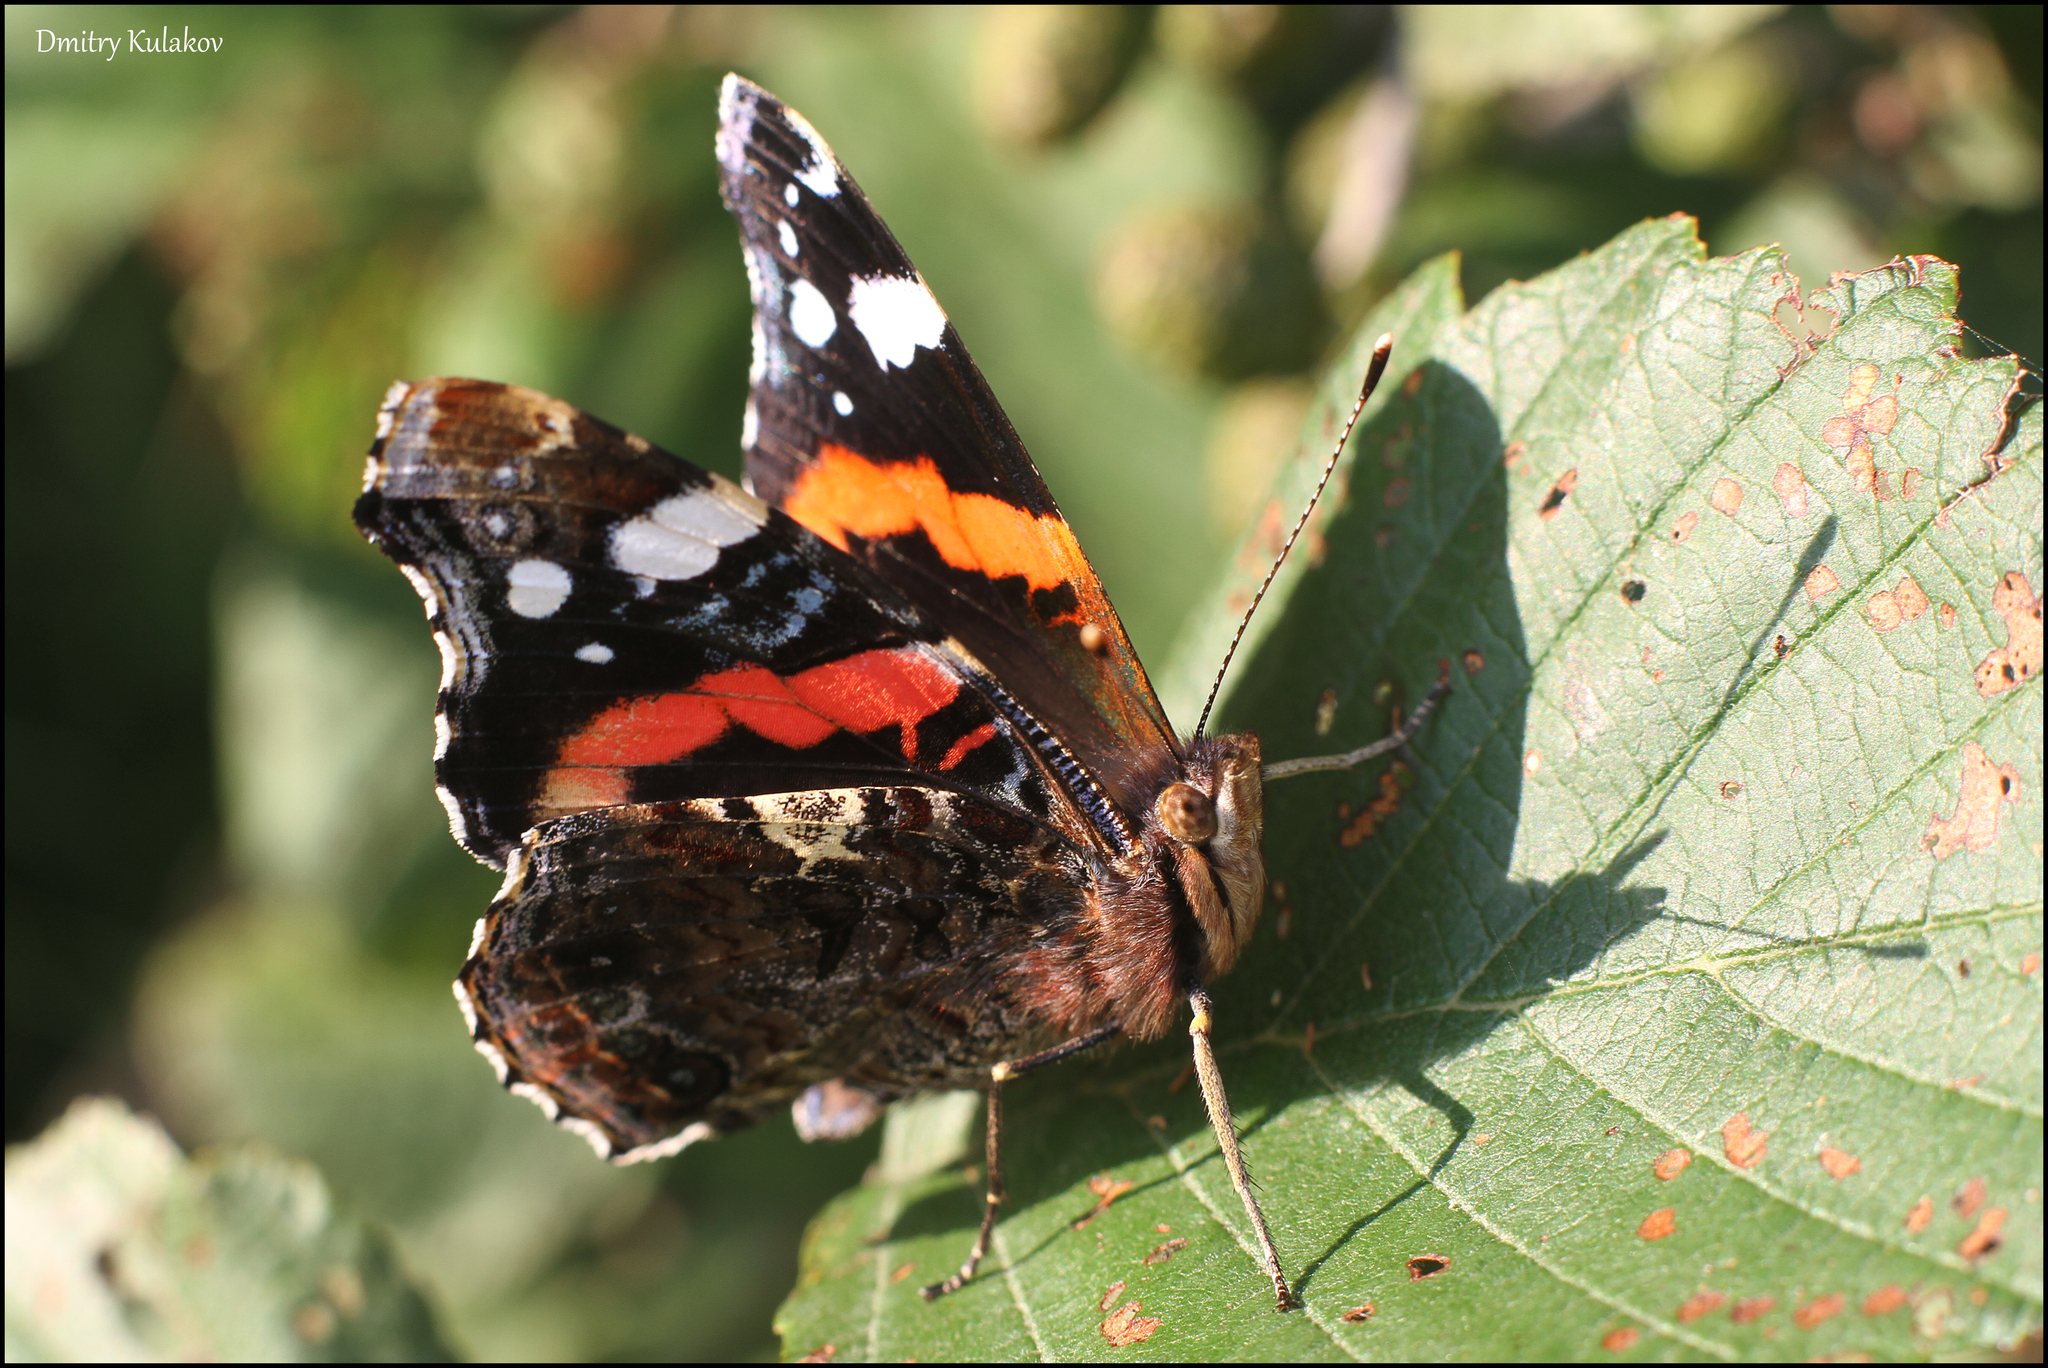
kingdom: Animalia
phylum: Arthropoda
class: Insecta
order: Lepidoptera
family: Nymphalidae
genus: Vanessa
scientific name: Vanessa atalanta
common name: Red admiral
